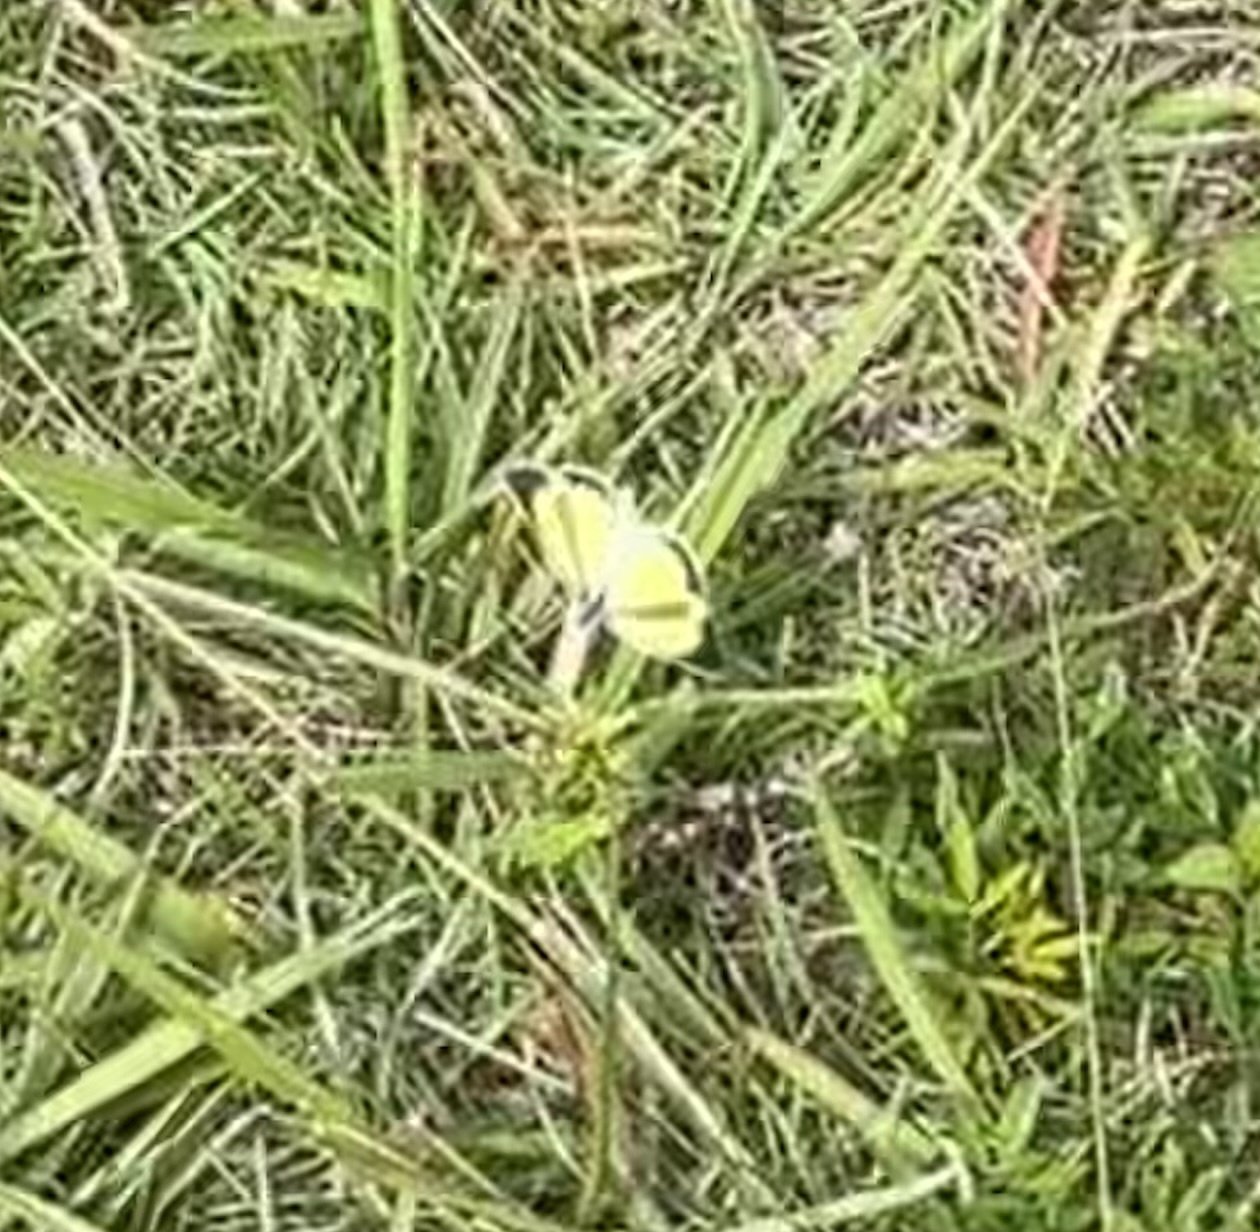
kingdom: Animalia
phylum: Arthropoda
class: Insecta
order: Lepidoptera
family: Pieridae
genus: Eurema
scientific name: Eurema daira
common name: Barred sulphur
